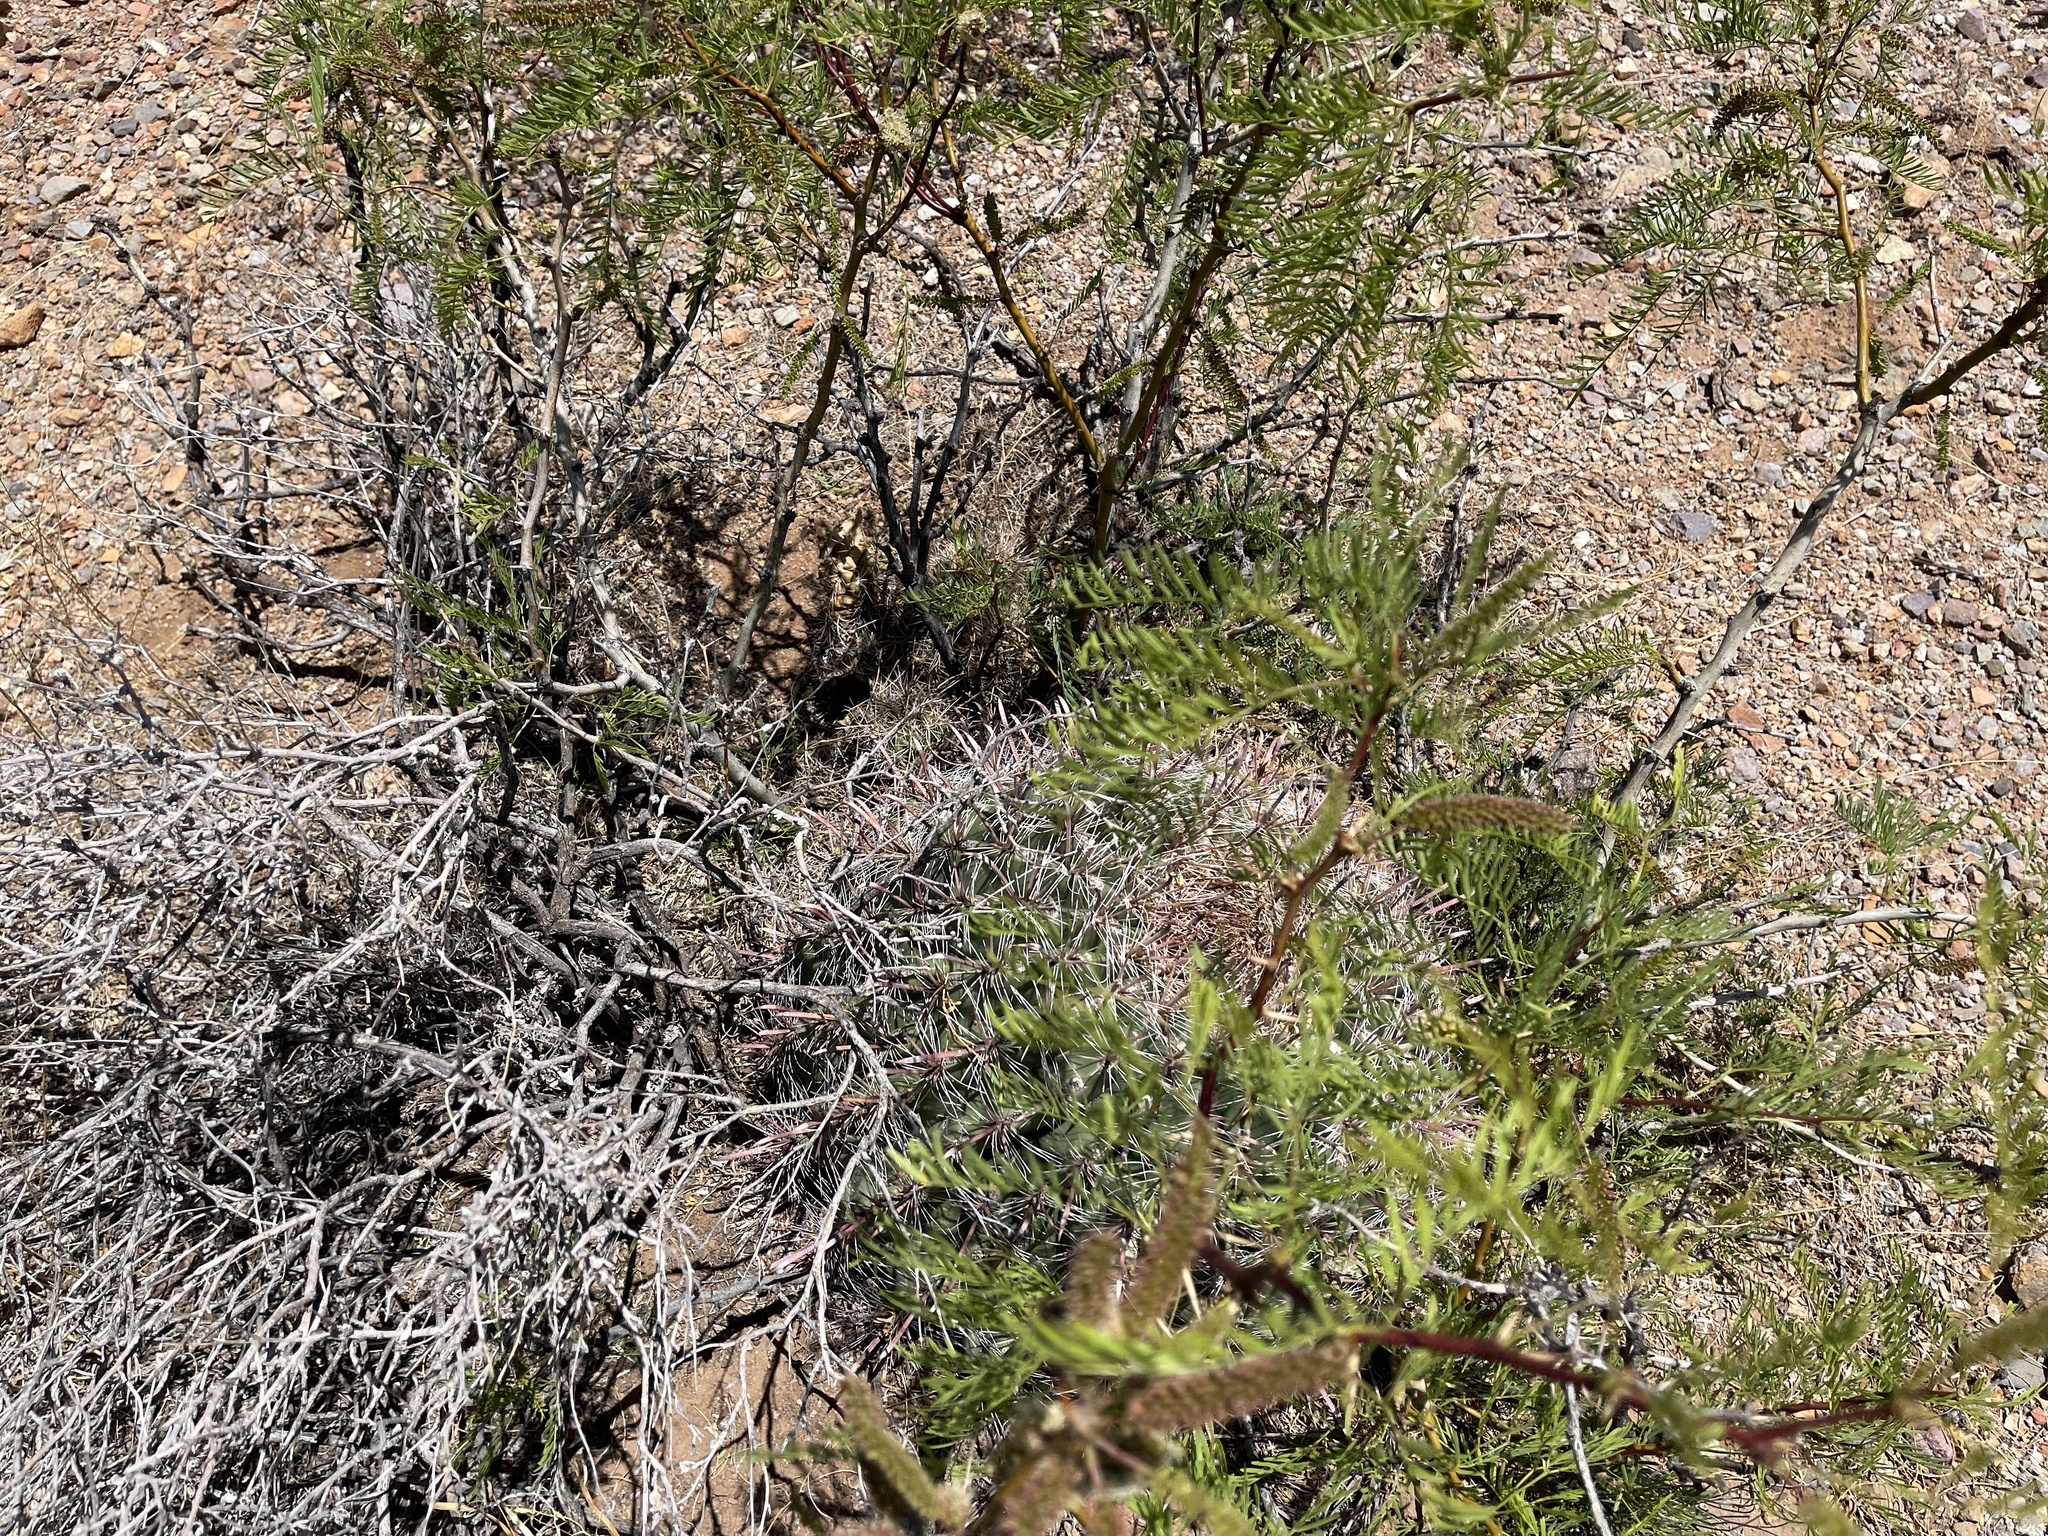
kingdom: Plantae
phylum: Tracheophyta
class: Magnoliopsida
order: Caryophyllales
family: Cactaceae
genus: Ferocactus
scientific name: Ferocactus wislizeni
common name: Candy barrel cactus
